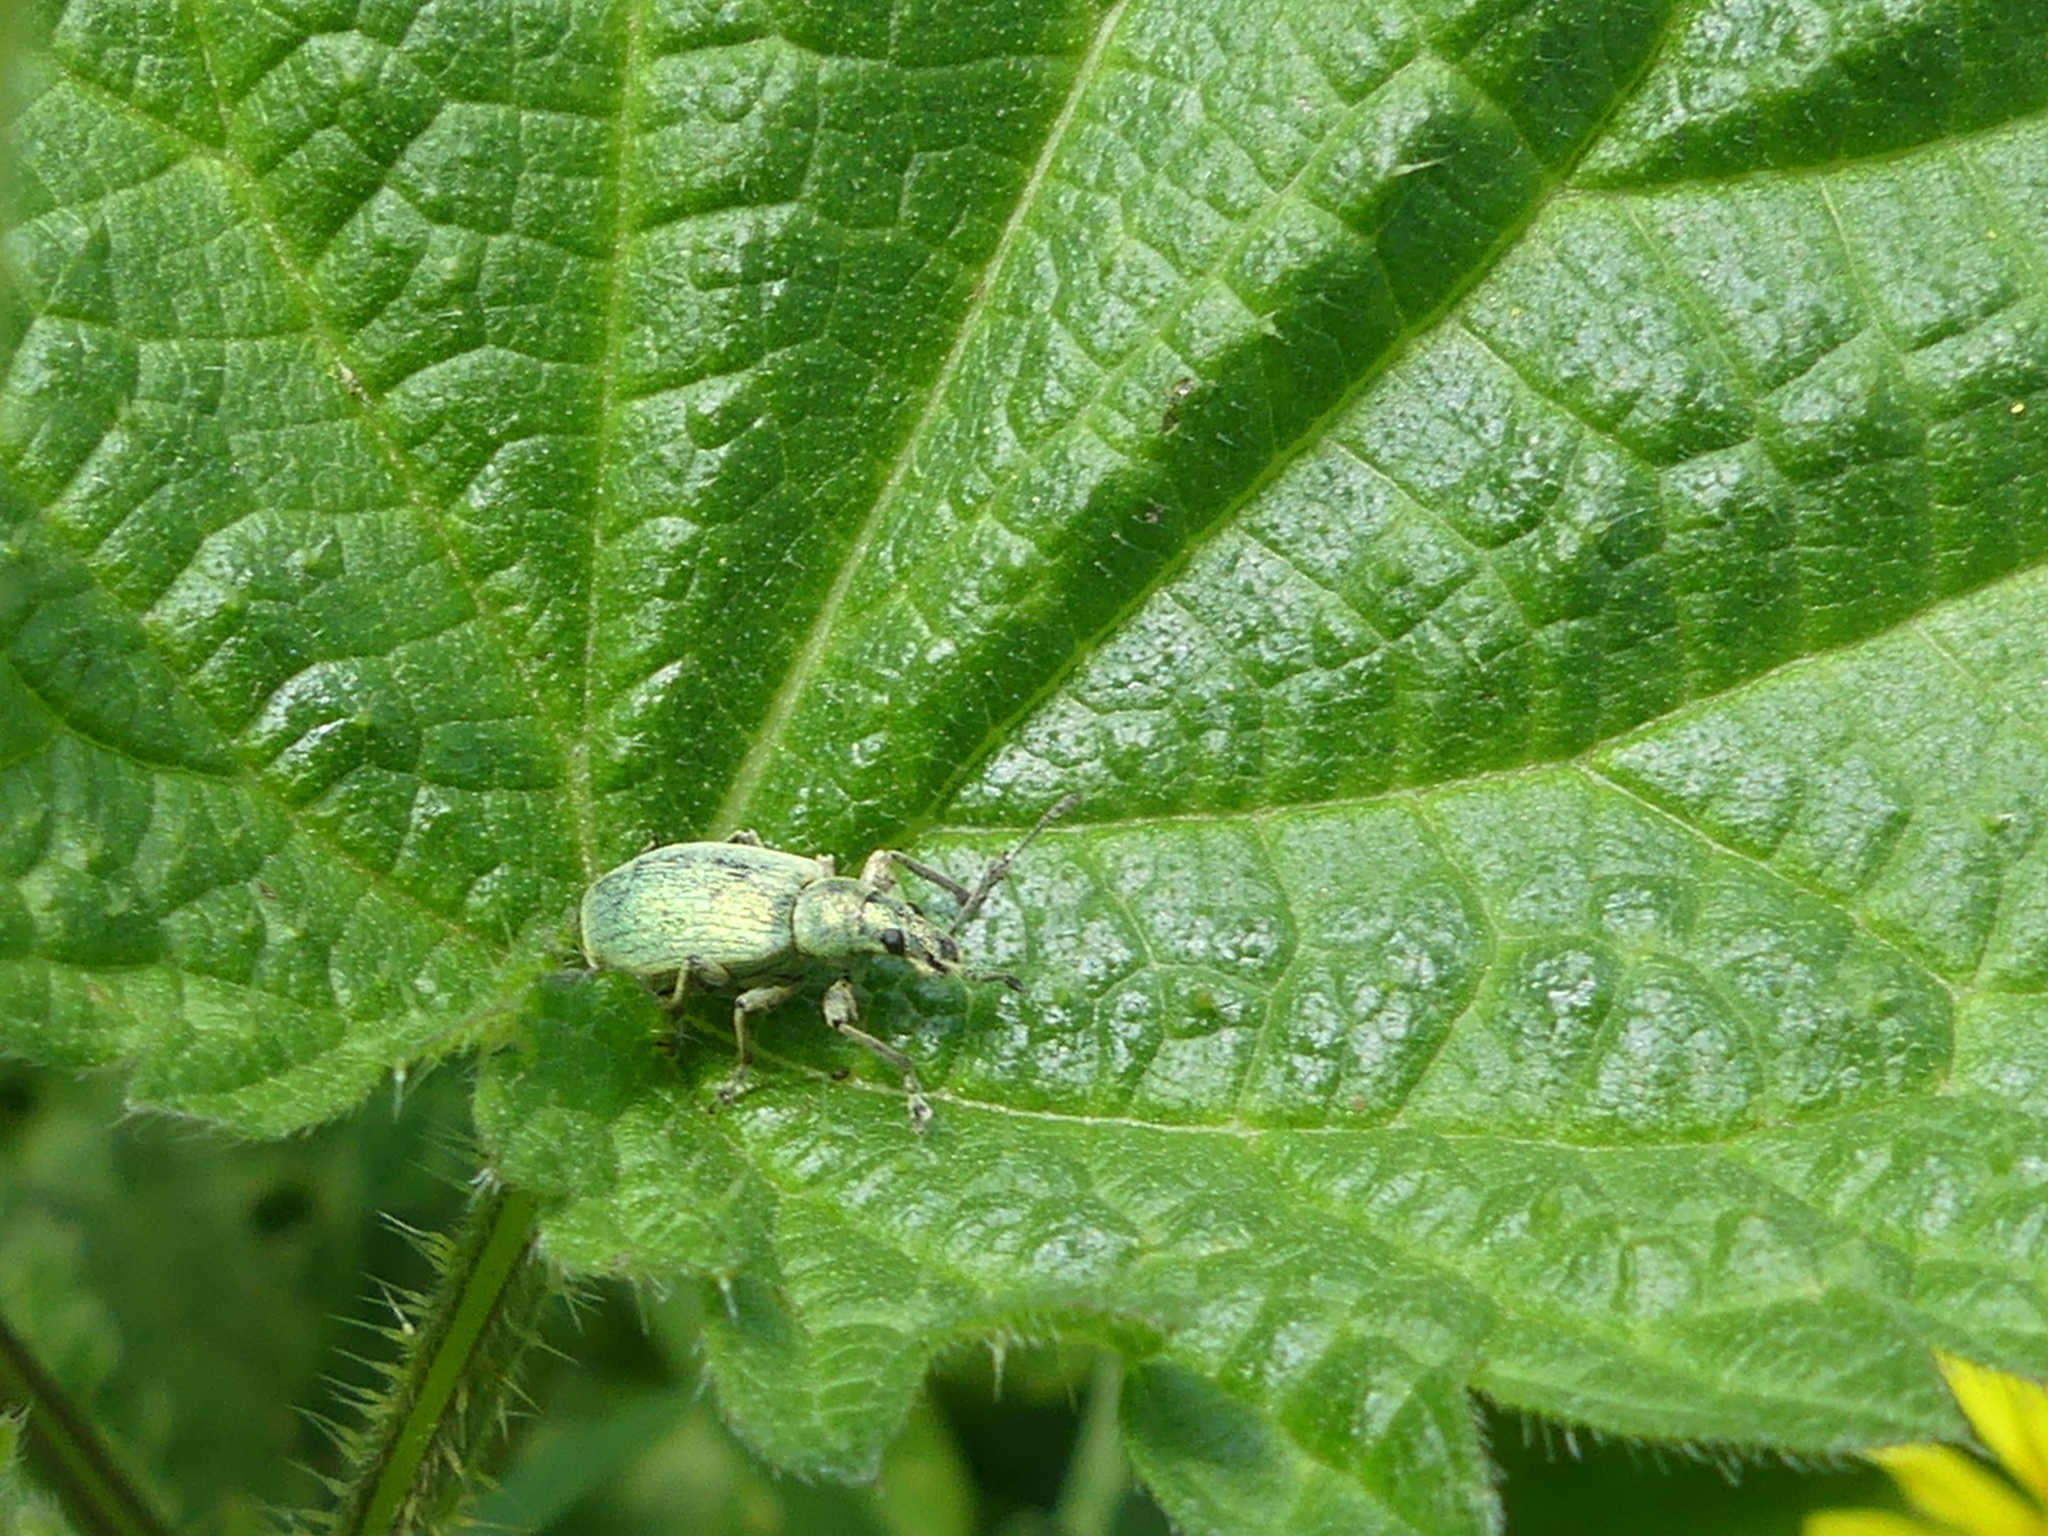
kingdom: Animalia
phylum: Arthropoda
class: Insecta
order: Coleoptera
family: Curculionidae
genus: Phyllobius
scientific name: Phyllobius pomaceus
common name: Green nettle weevil
